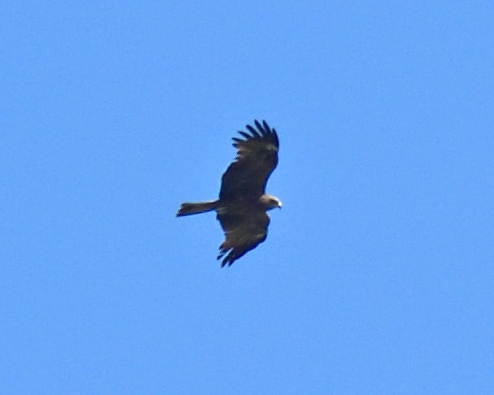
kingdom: Animalia
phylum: Chordata
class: Aves
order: Accipitriformes
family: Accipitridae
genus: Milvus
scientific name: Milvus migrans
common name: Black kite
